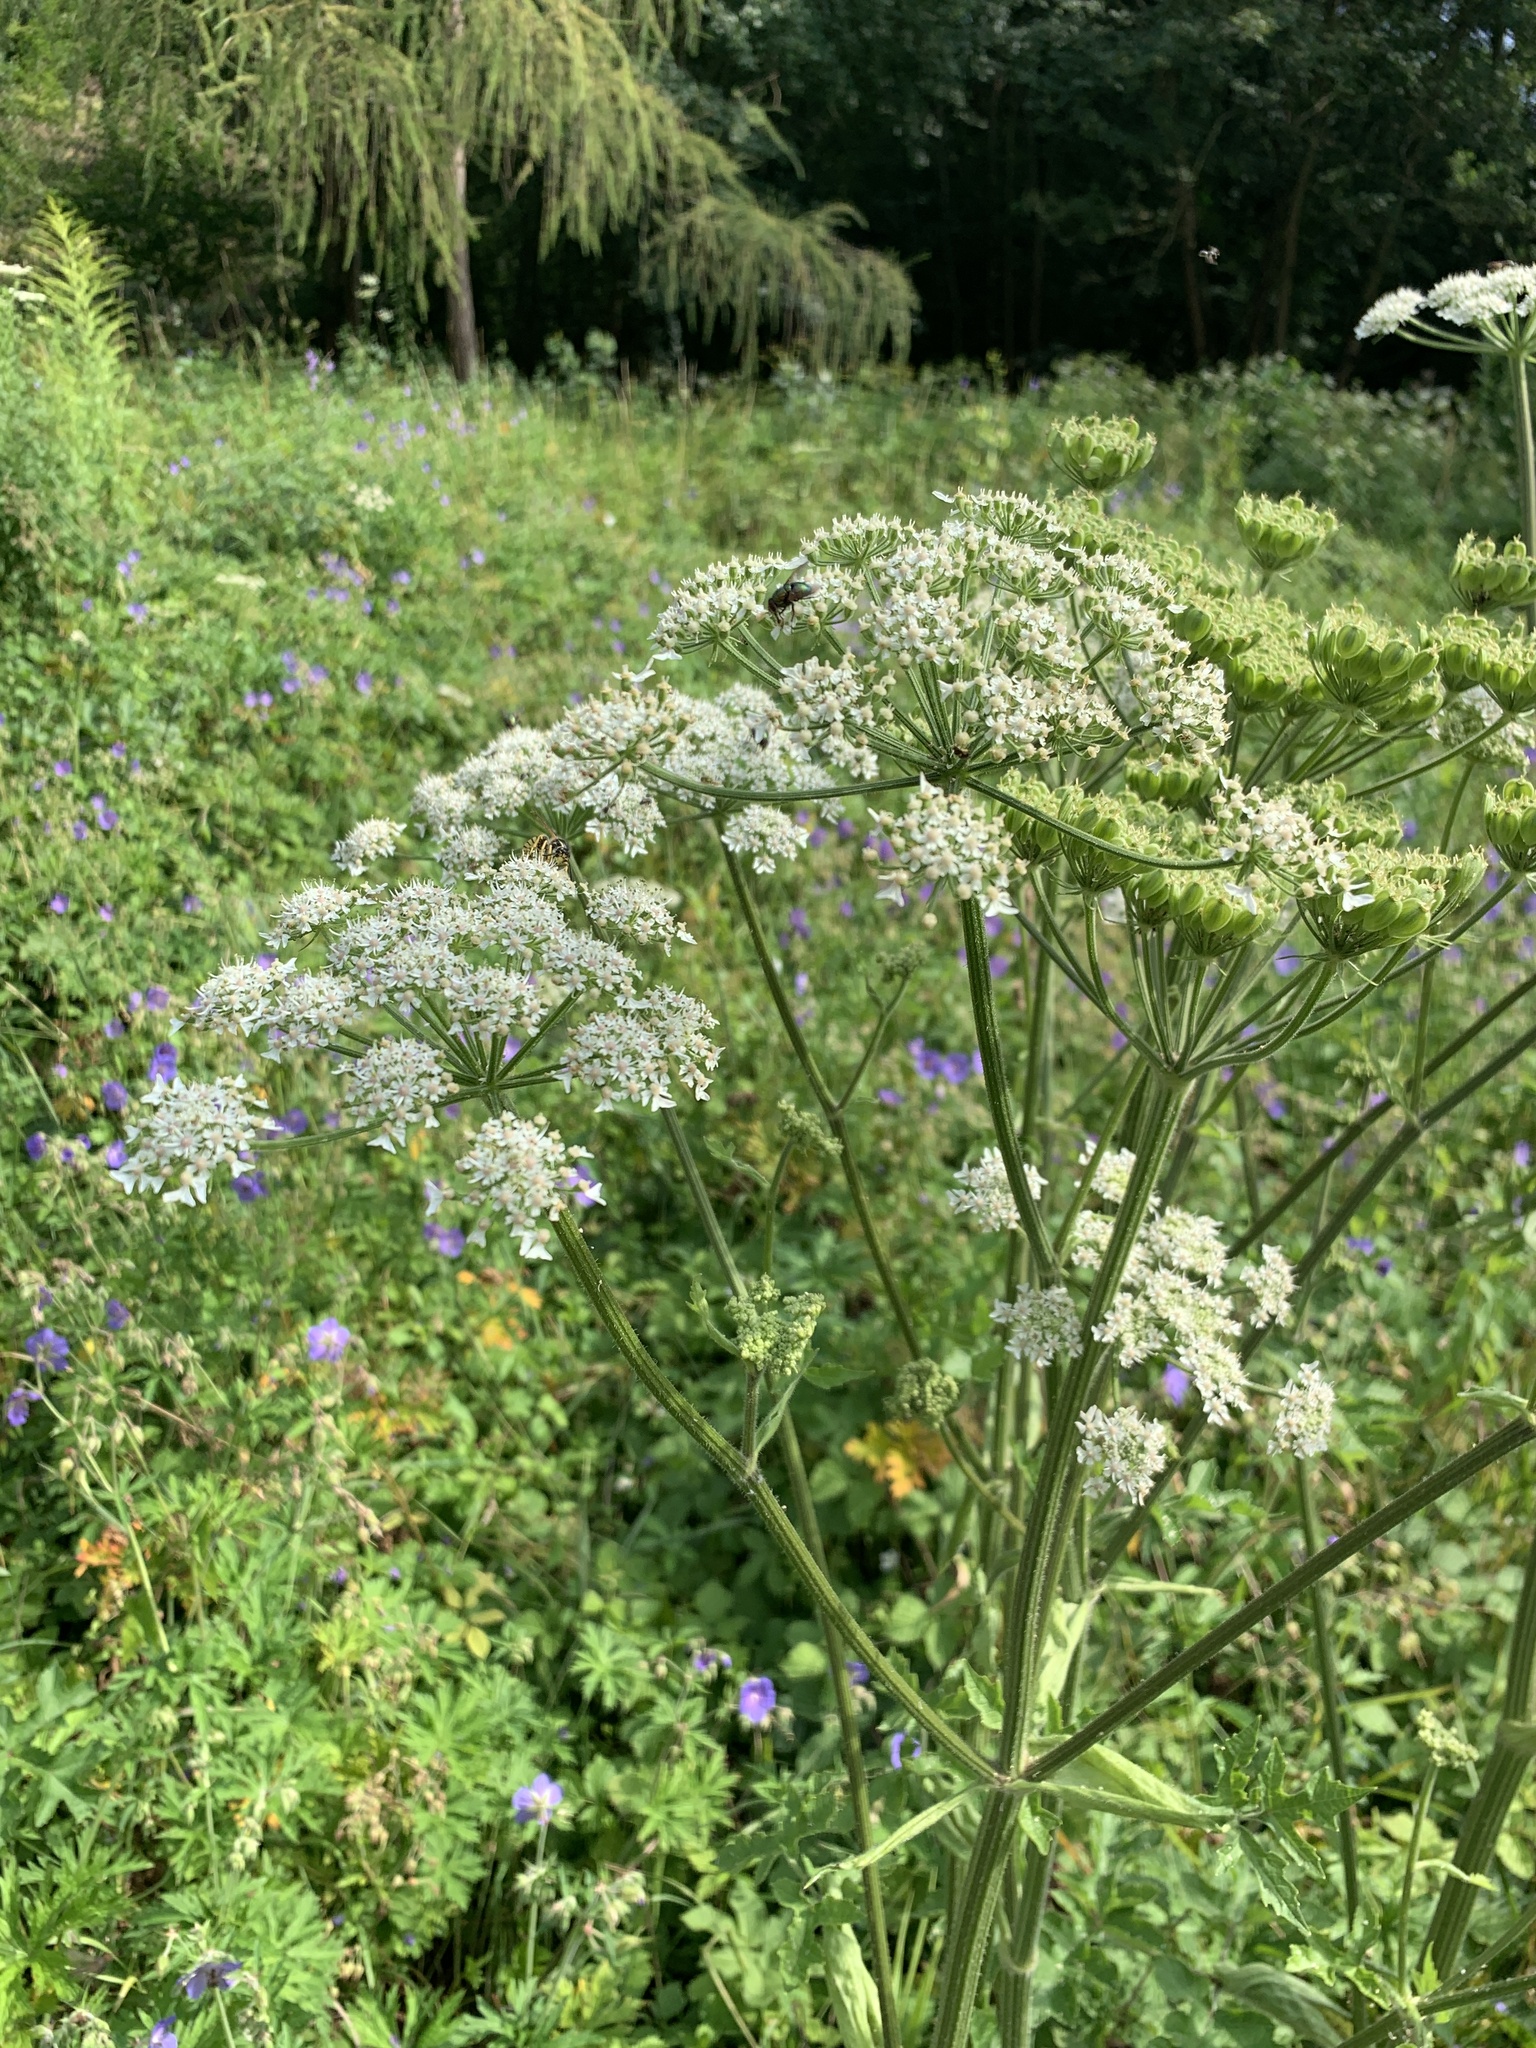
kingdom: Plantae
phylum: Tracheophyta
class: Magnoliopsida
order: Apiales
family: Apiaceae
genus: Heracleum
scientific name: Heracleum sphondylium
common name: Hogweed
